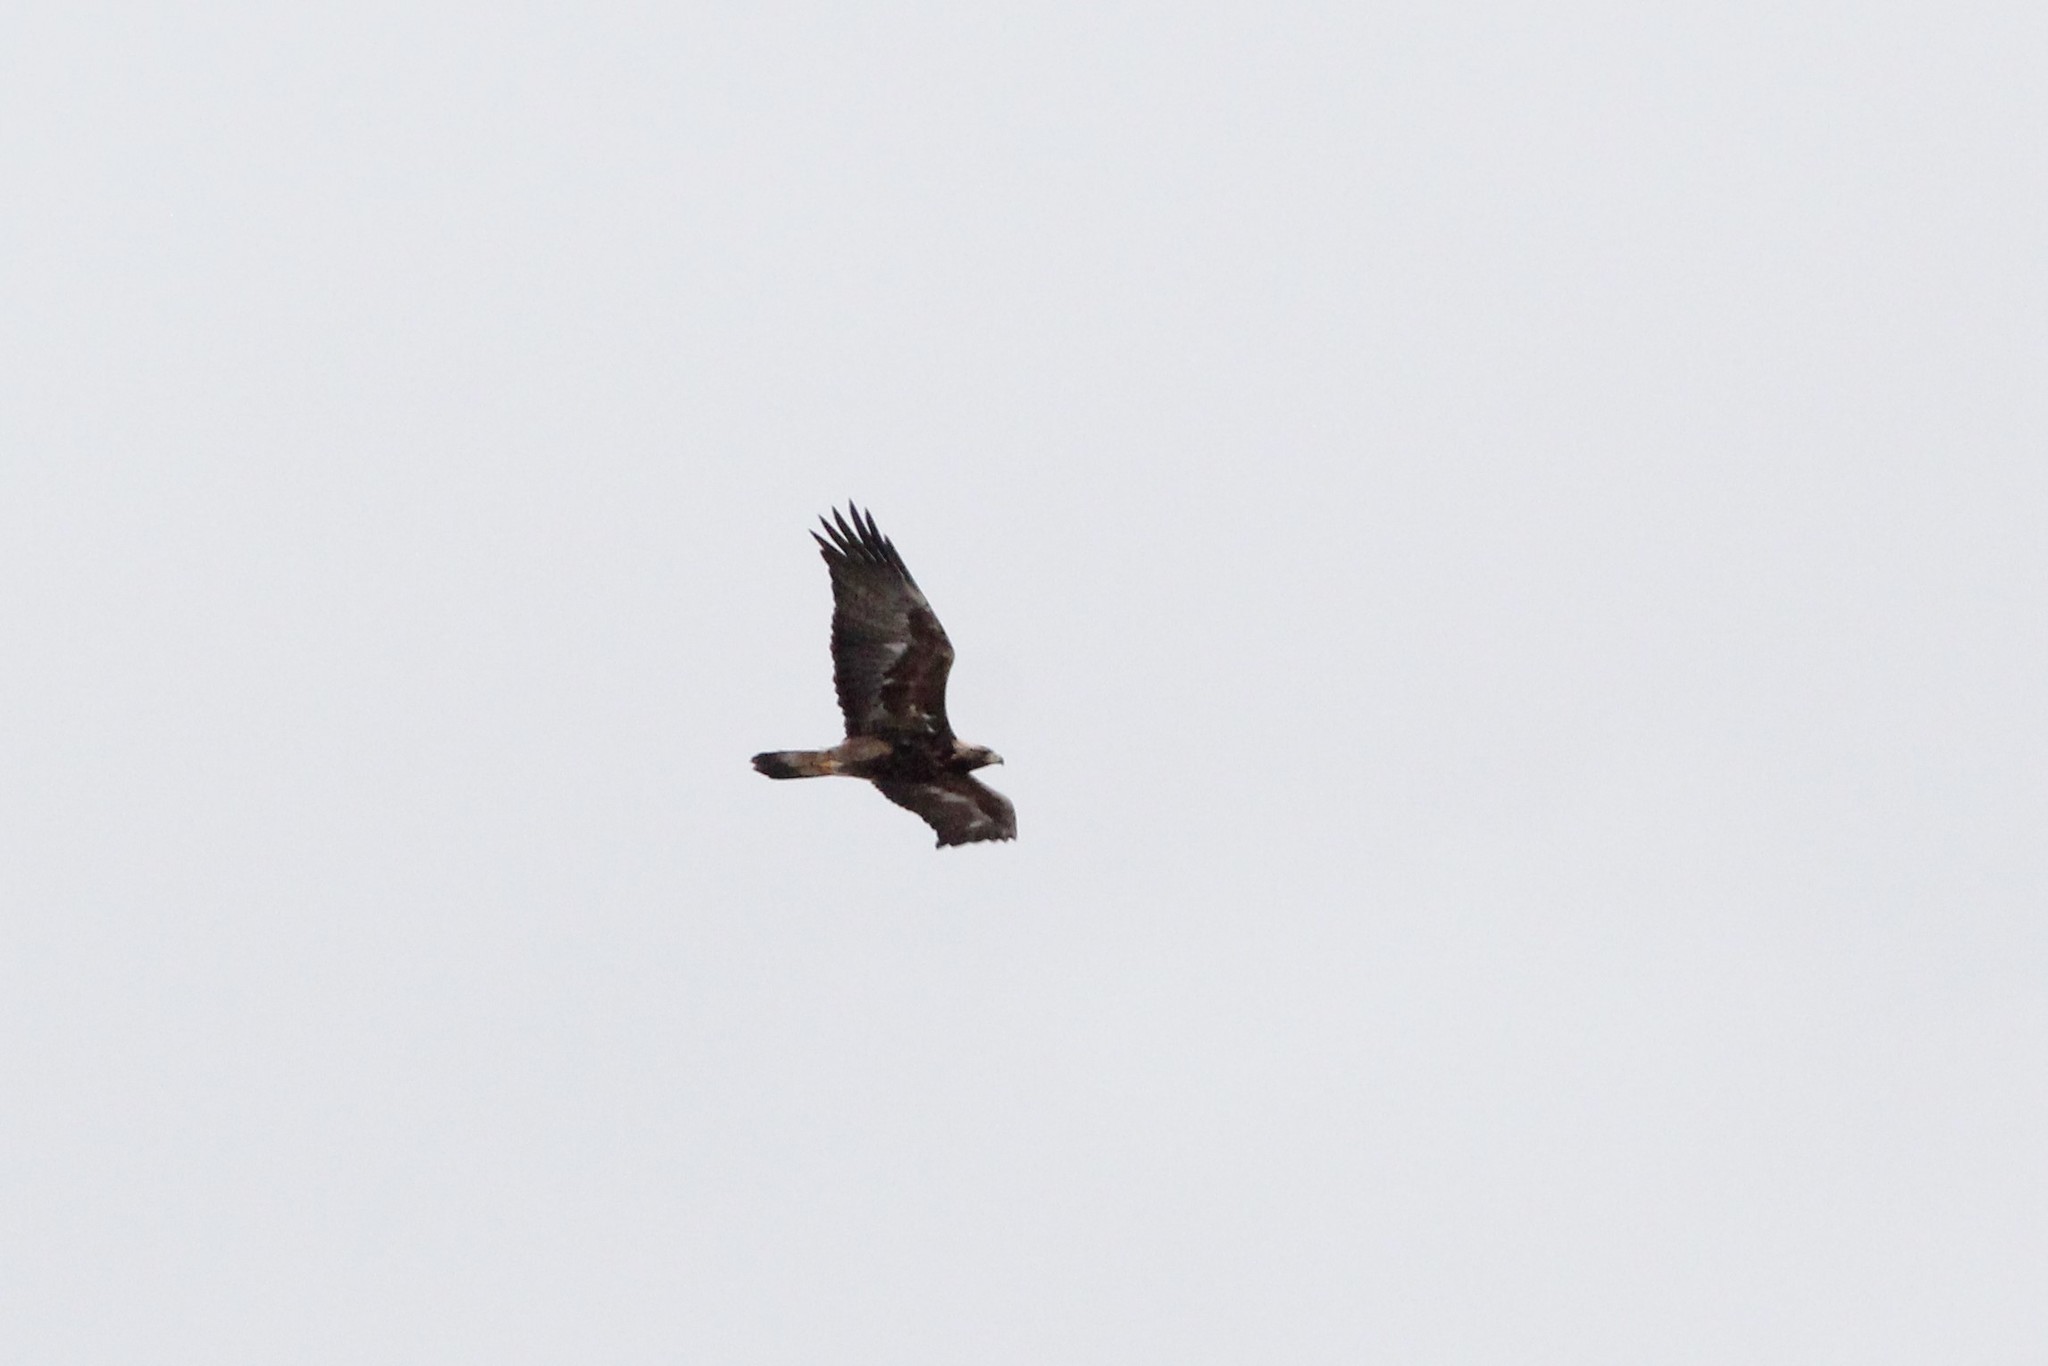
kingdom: Animalia
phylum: Chordata
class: Aves
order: Accipitriformes
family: Accipitridae
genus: Aquila
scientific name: Aquila chrysaetos
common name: Golden eagle
